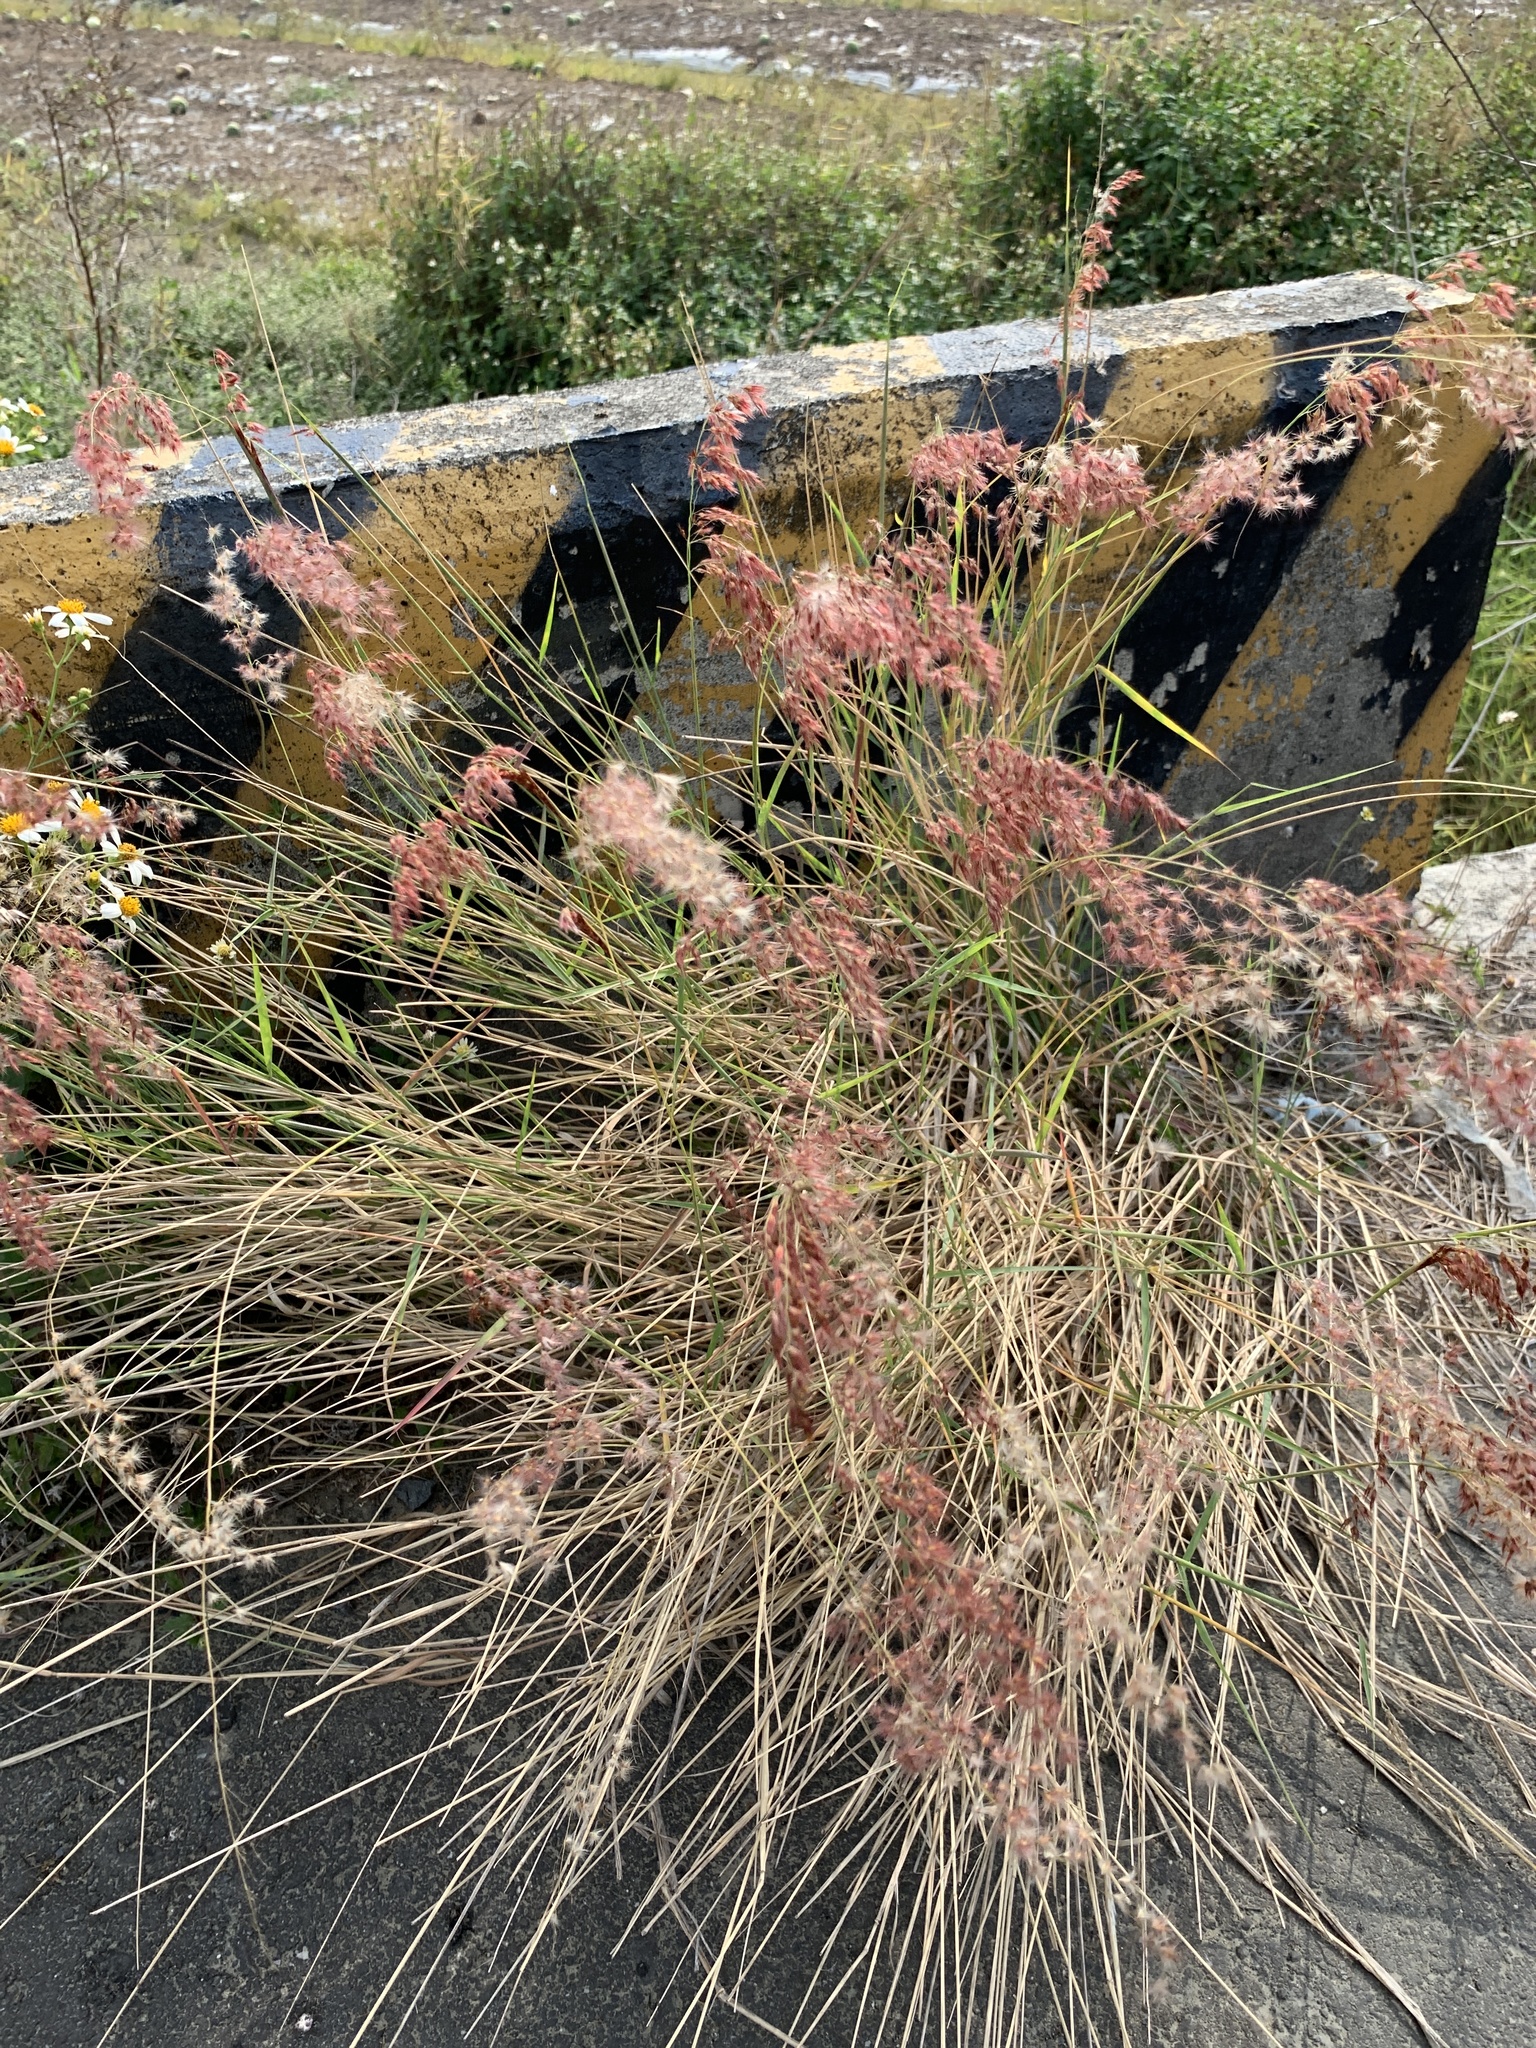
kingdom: Plantae
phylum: Tracheophyta
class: Liliopsida
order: Poales
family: Poaceae
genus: Melinis
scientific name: Melinis repens
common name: Rose natal grass
